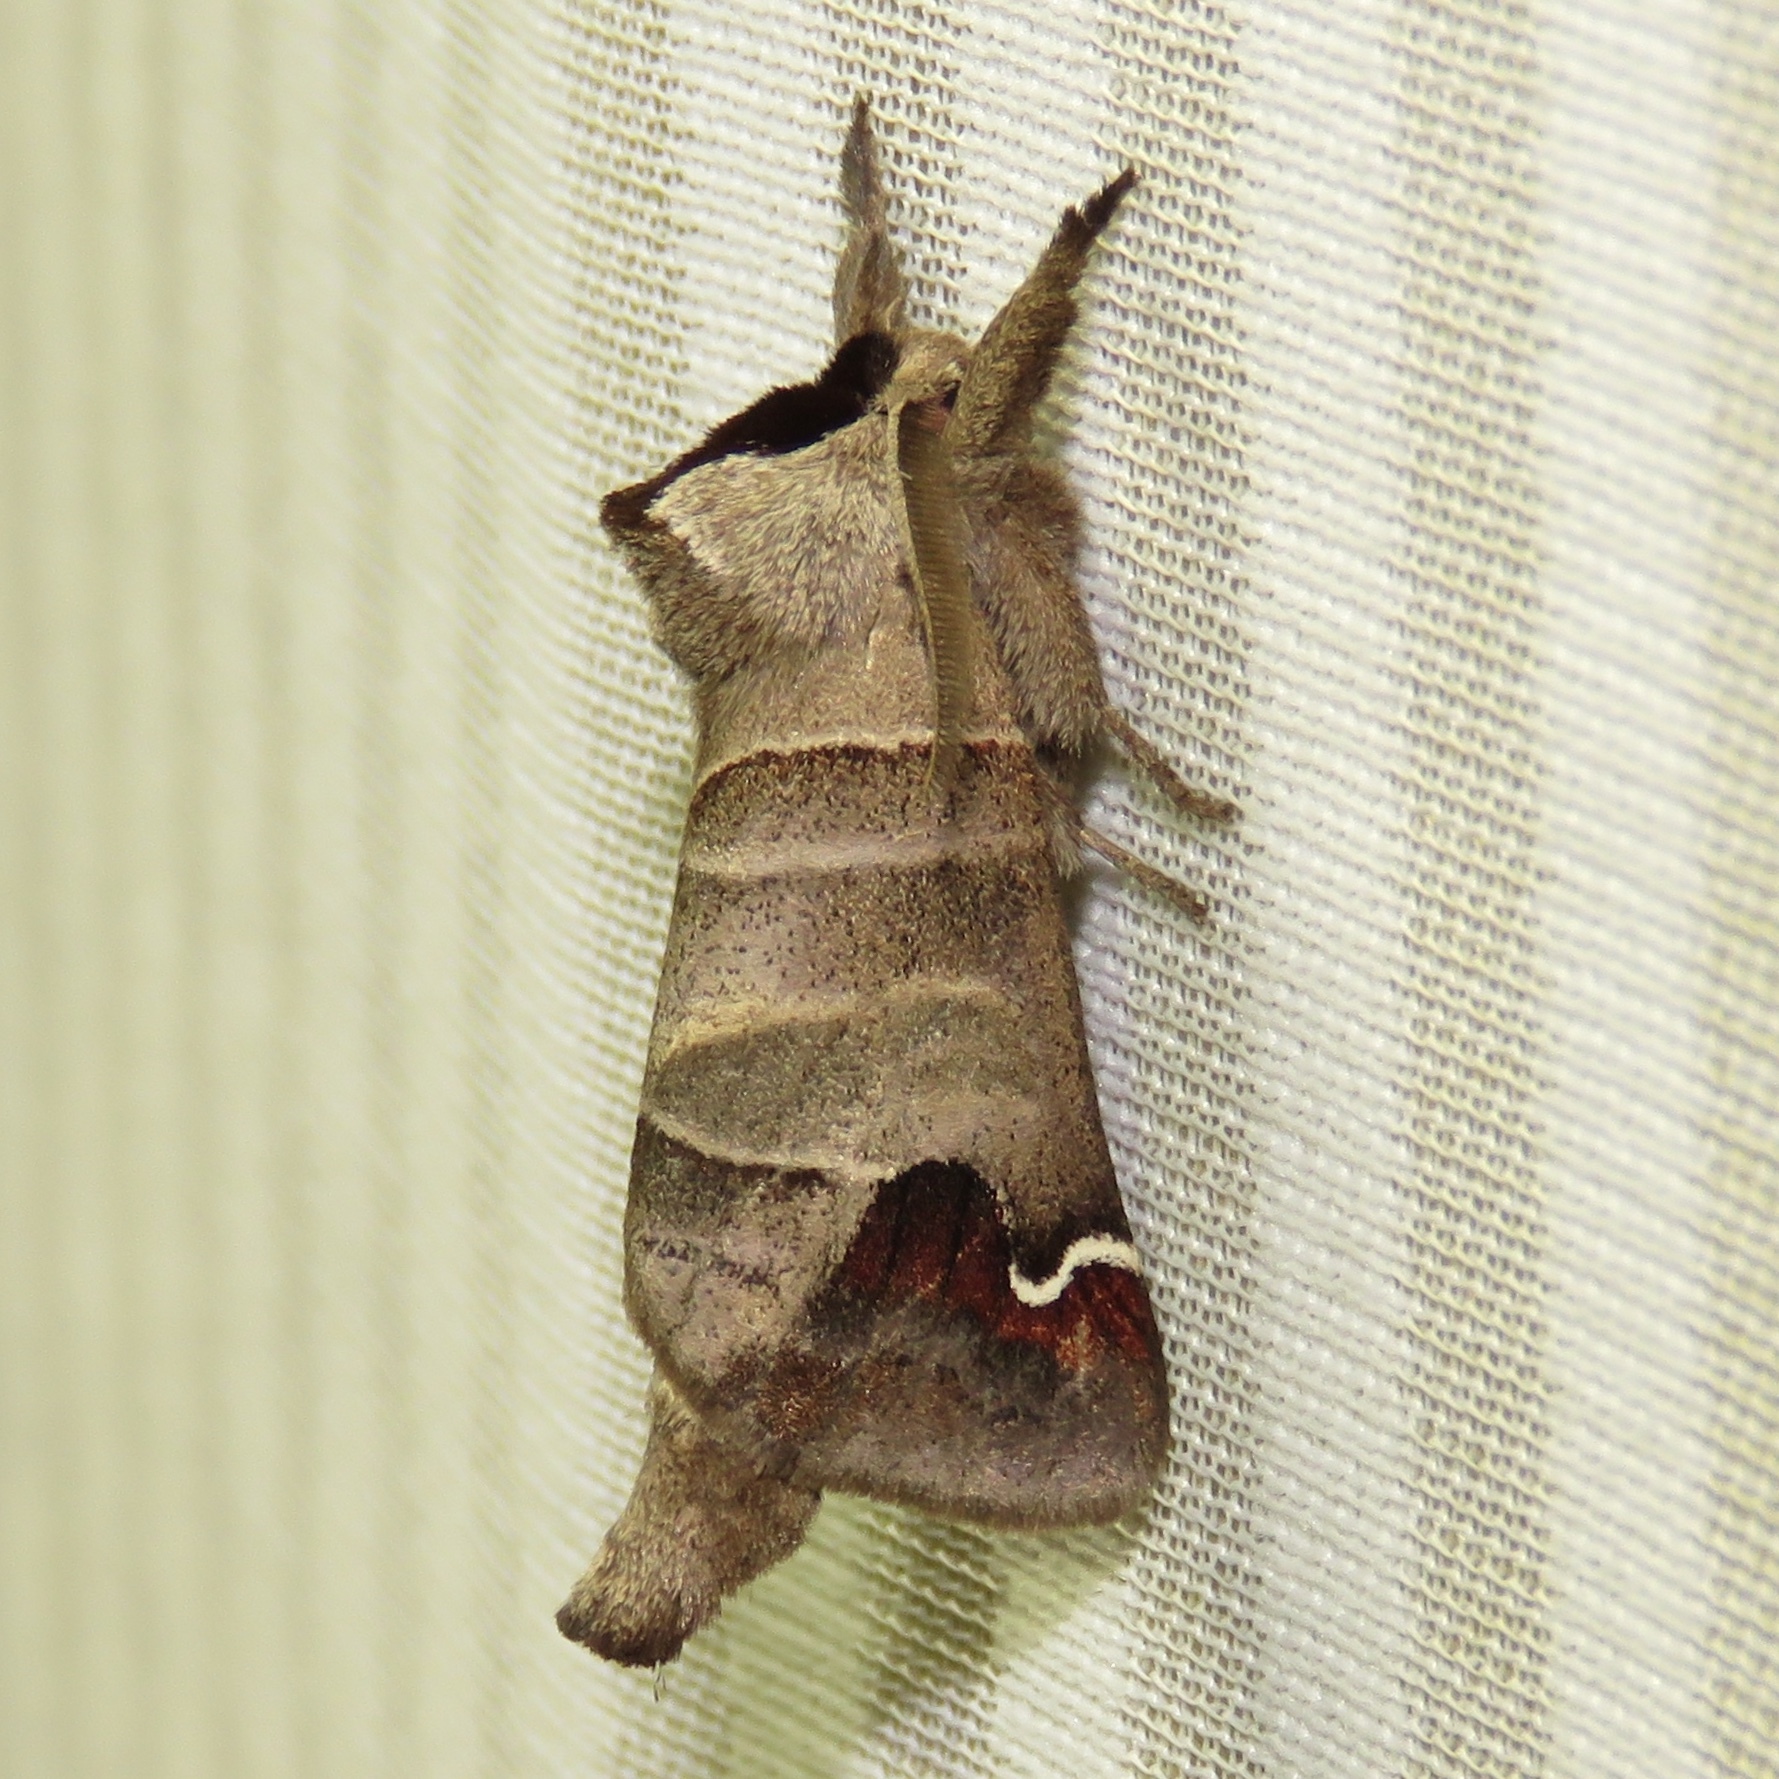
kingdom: Animalia
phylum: Arthropoda
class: Insecta
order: Lepidoptera
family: Notodontidae
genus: Clostera
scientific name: Clostera albosigma
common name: Sigmoid prominent
